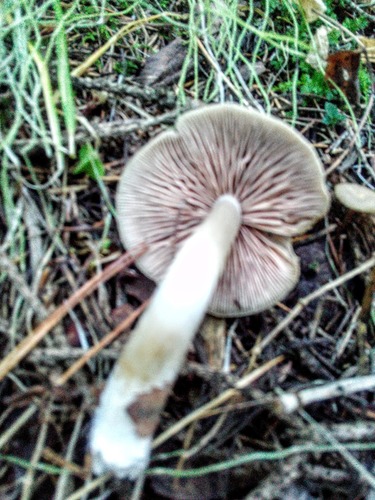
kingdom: Fungi
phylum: Basidiomycota
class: Agaricomycetes
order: Agaricales
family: Entolomataceae
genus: Entoloma
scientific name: Entoloma
